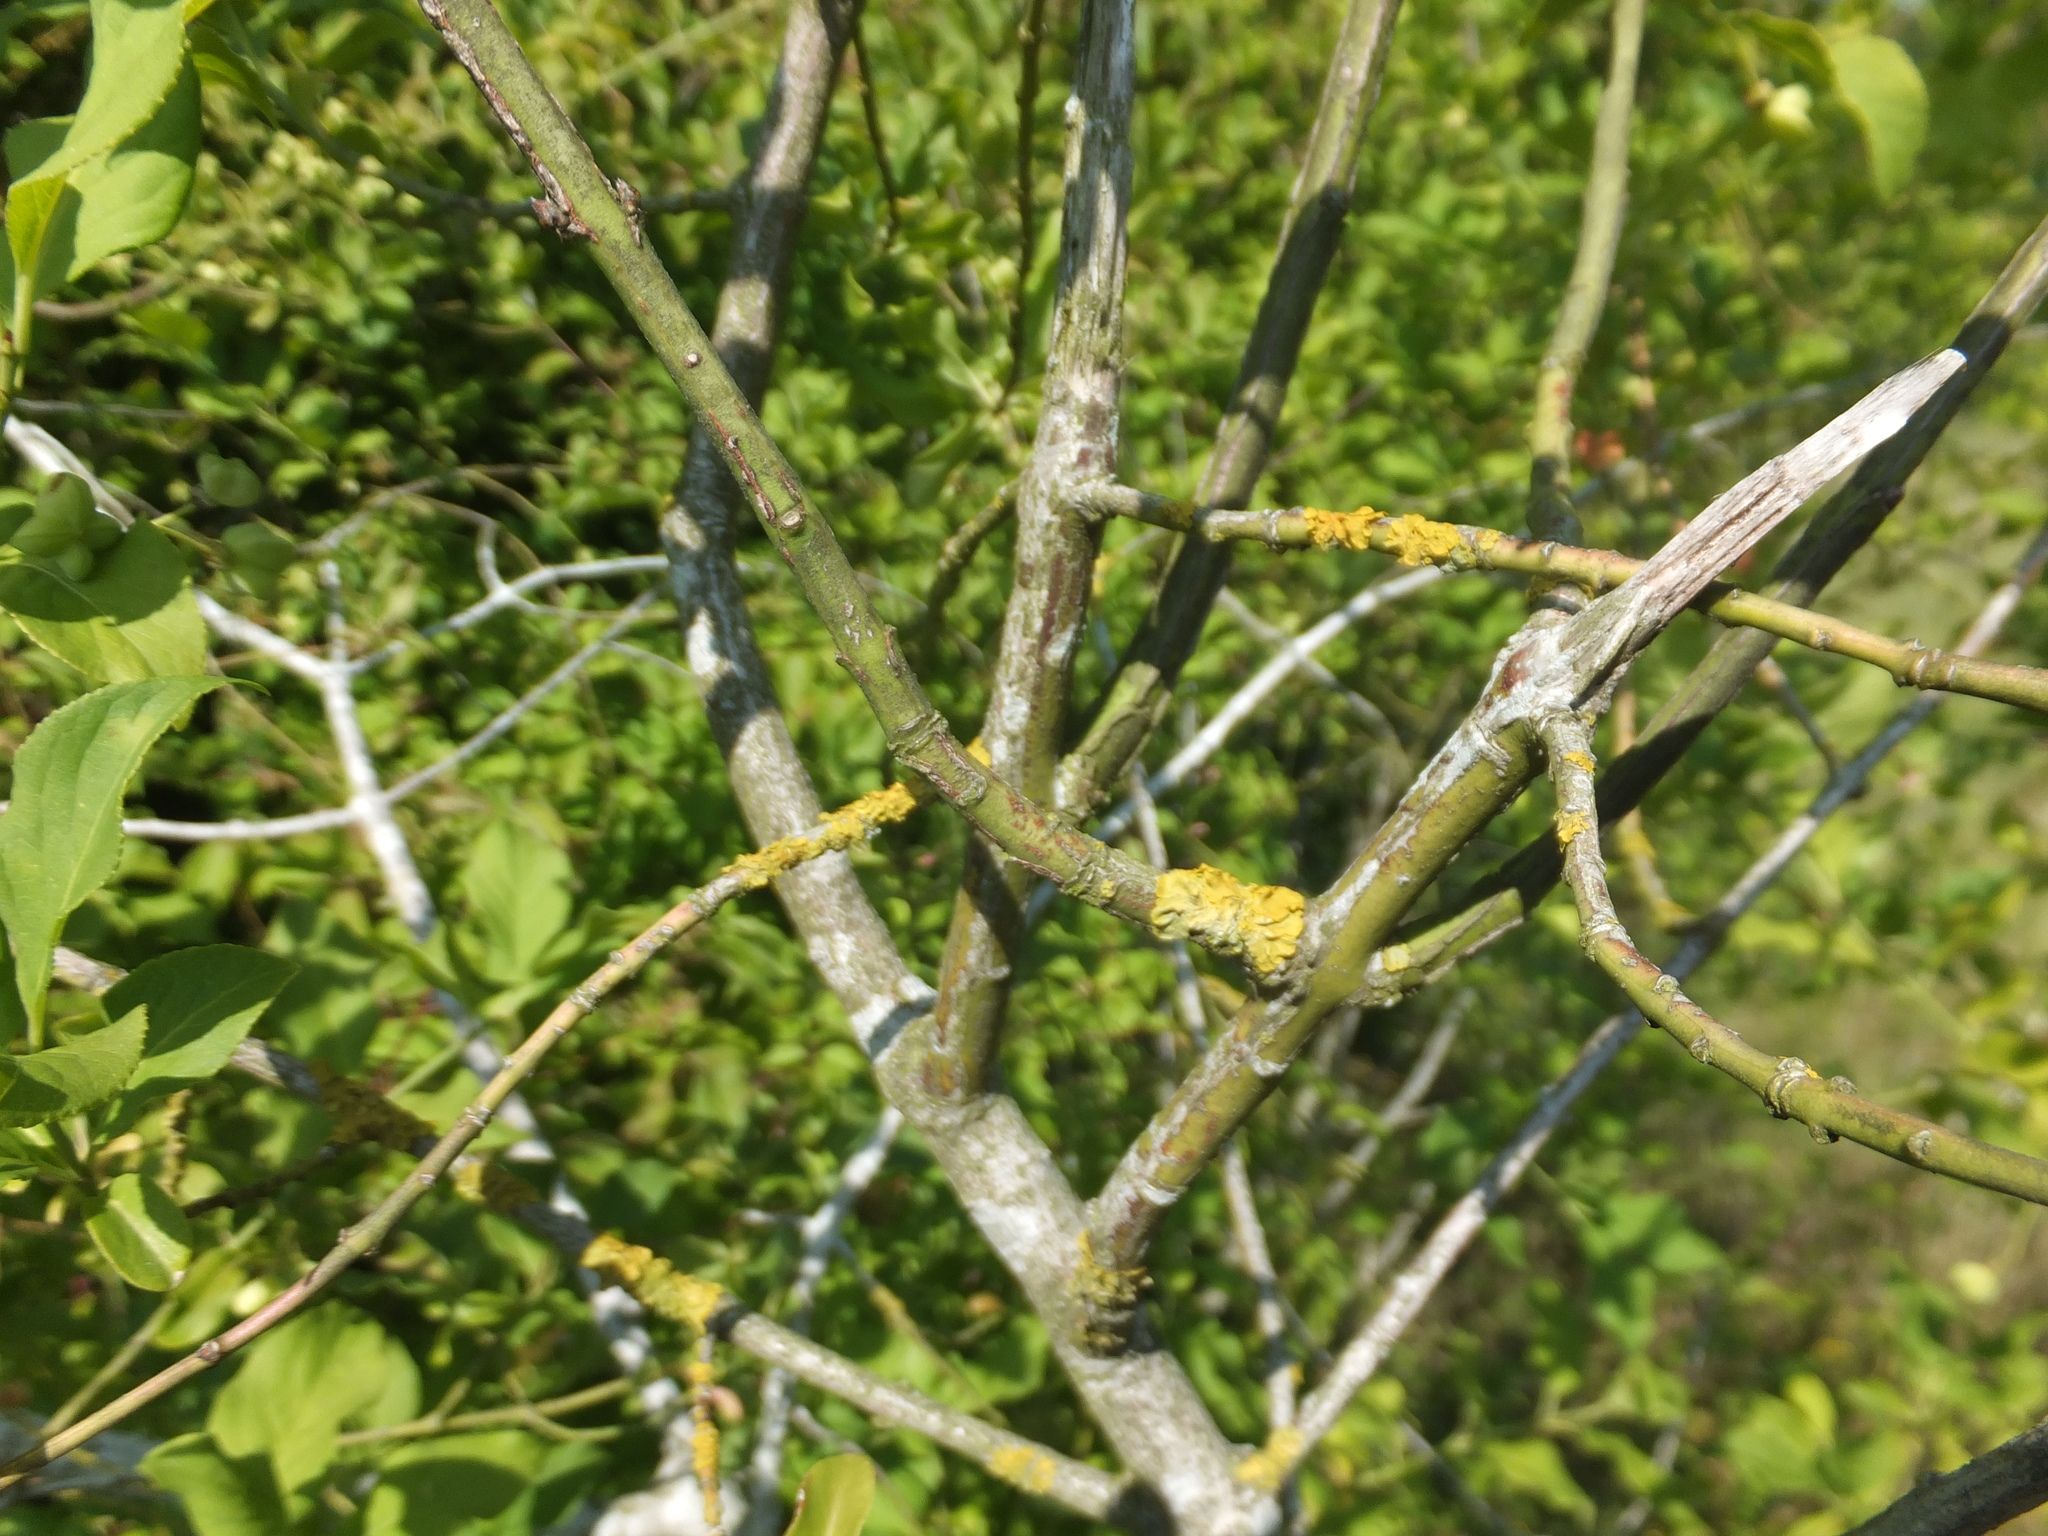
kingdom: Plantae
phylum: Tracheophyta
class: Magnoliopsida
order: Celastrales
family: Celastraceae
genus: Euonymus
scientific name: Euonymus europaeus
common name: Spindle
